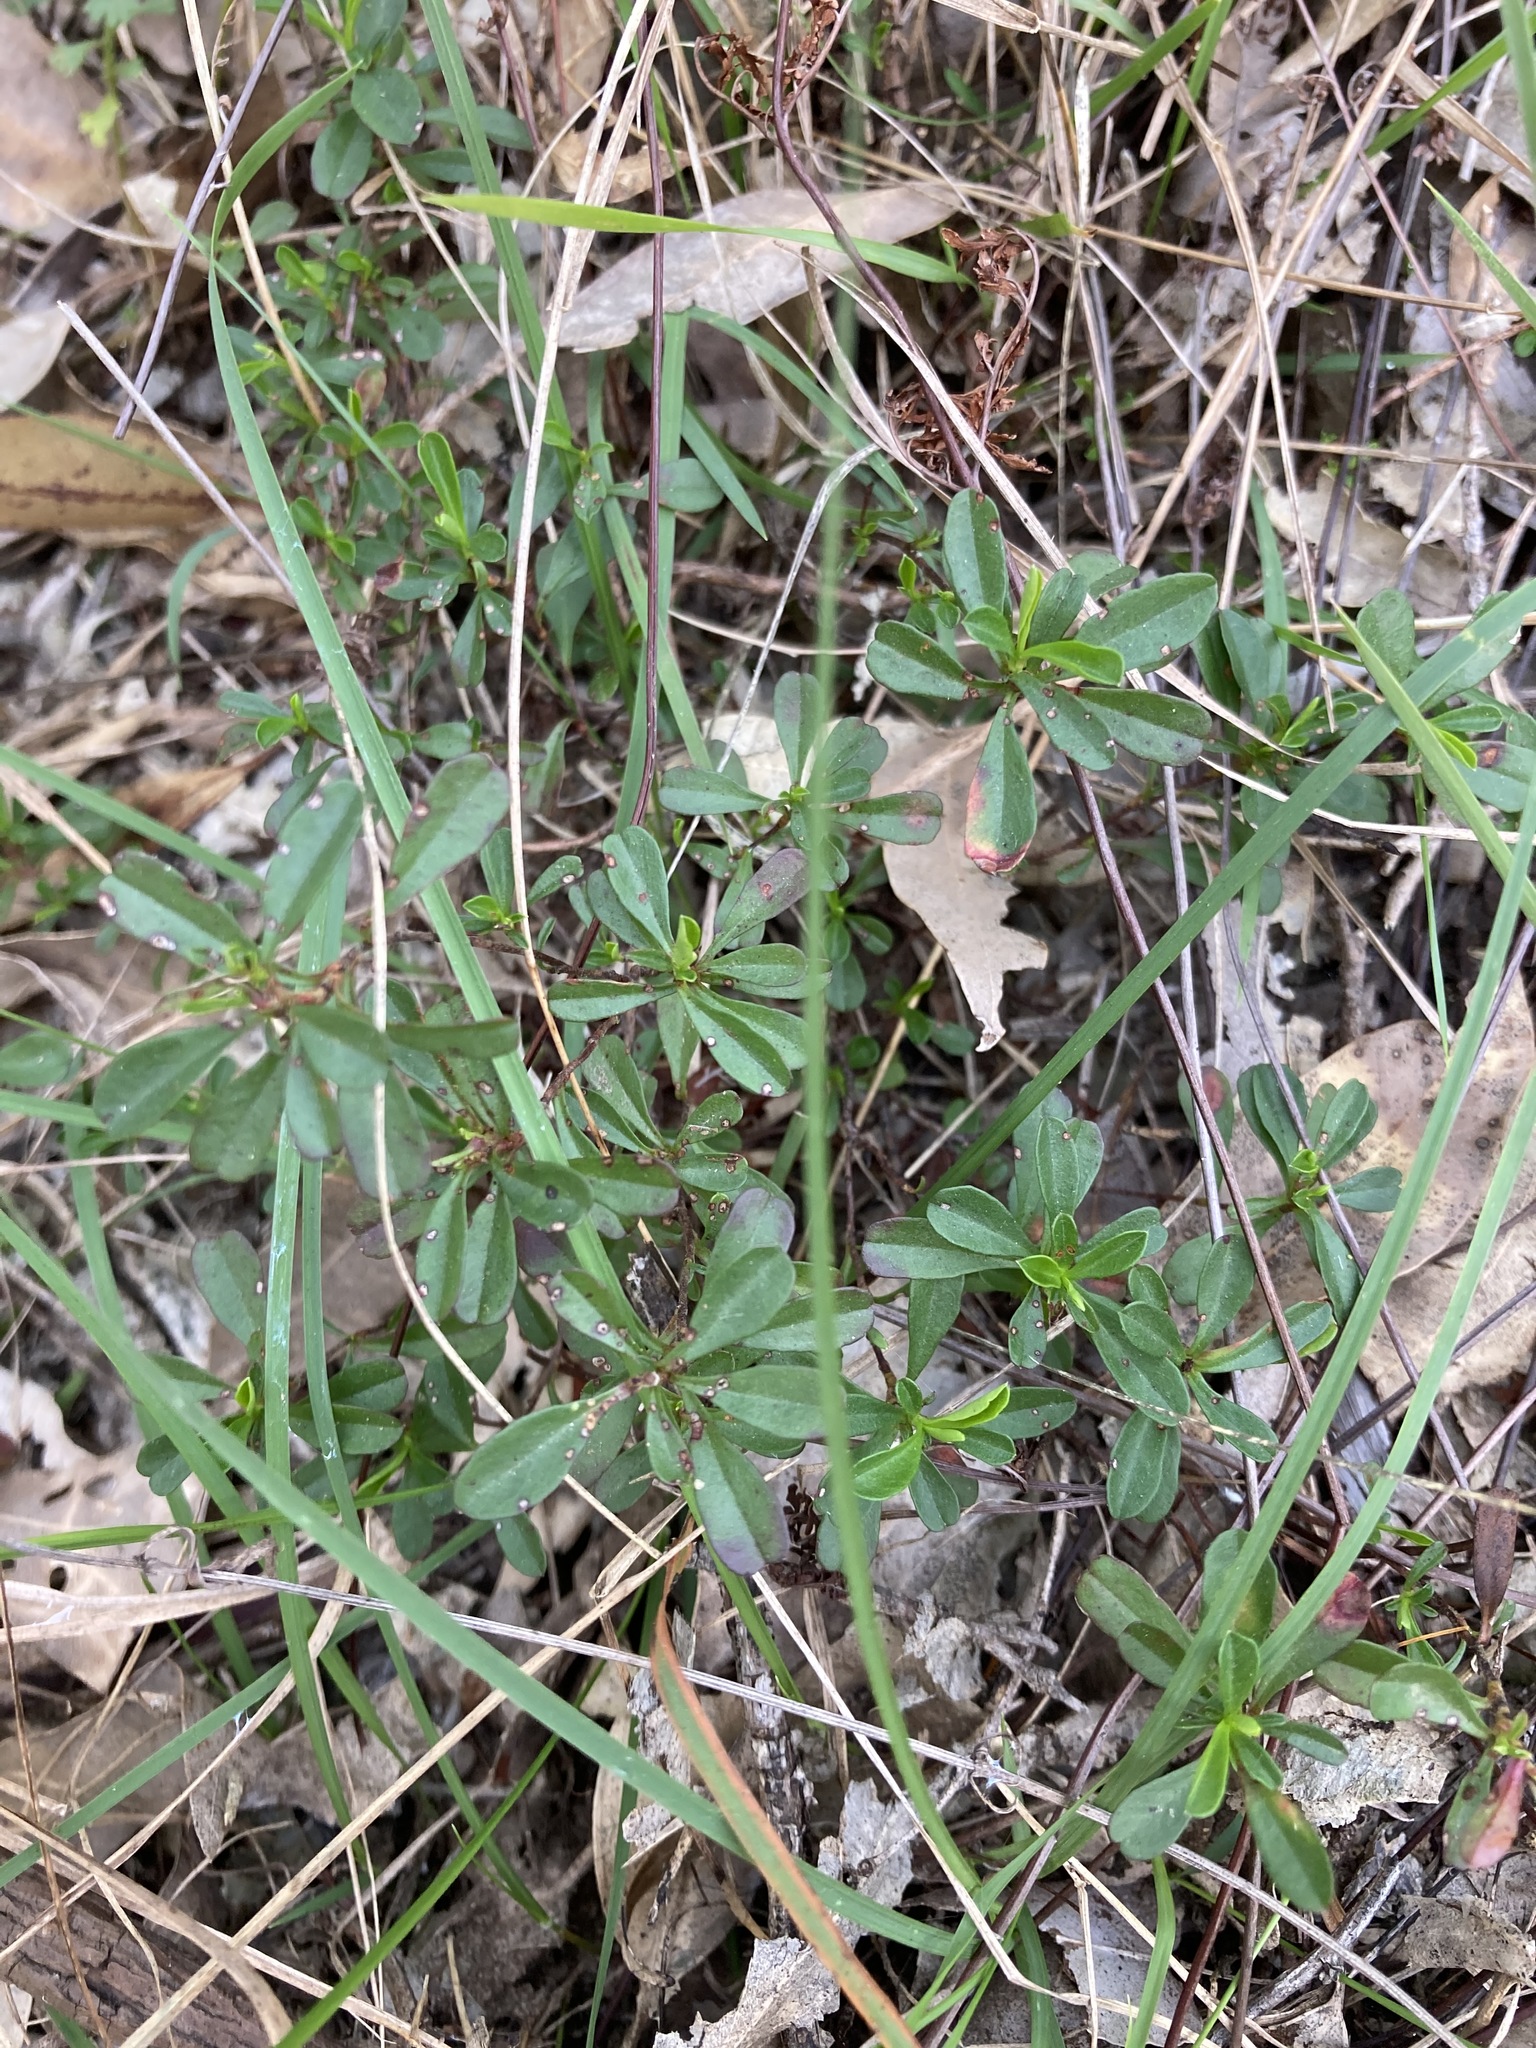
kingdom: Plantae
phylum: Tracheophyta
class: Magnoliopsida
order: Dilleniales
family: Dilleniaceae
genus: Hibbertia
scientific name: Hibbertia diffusa
